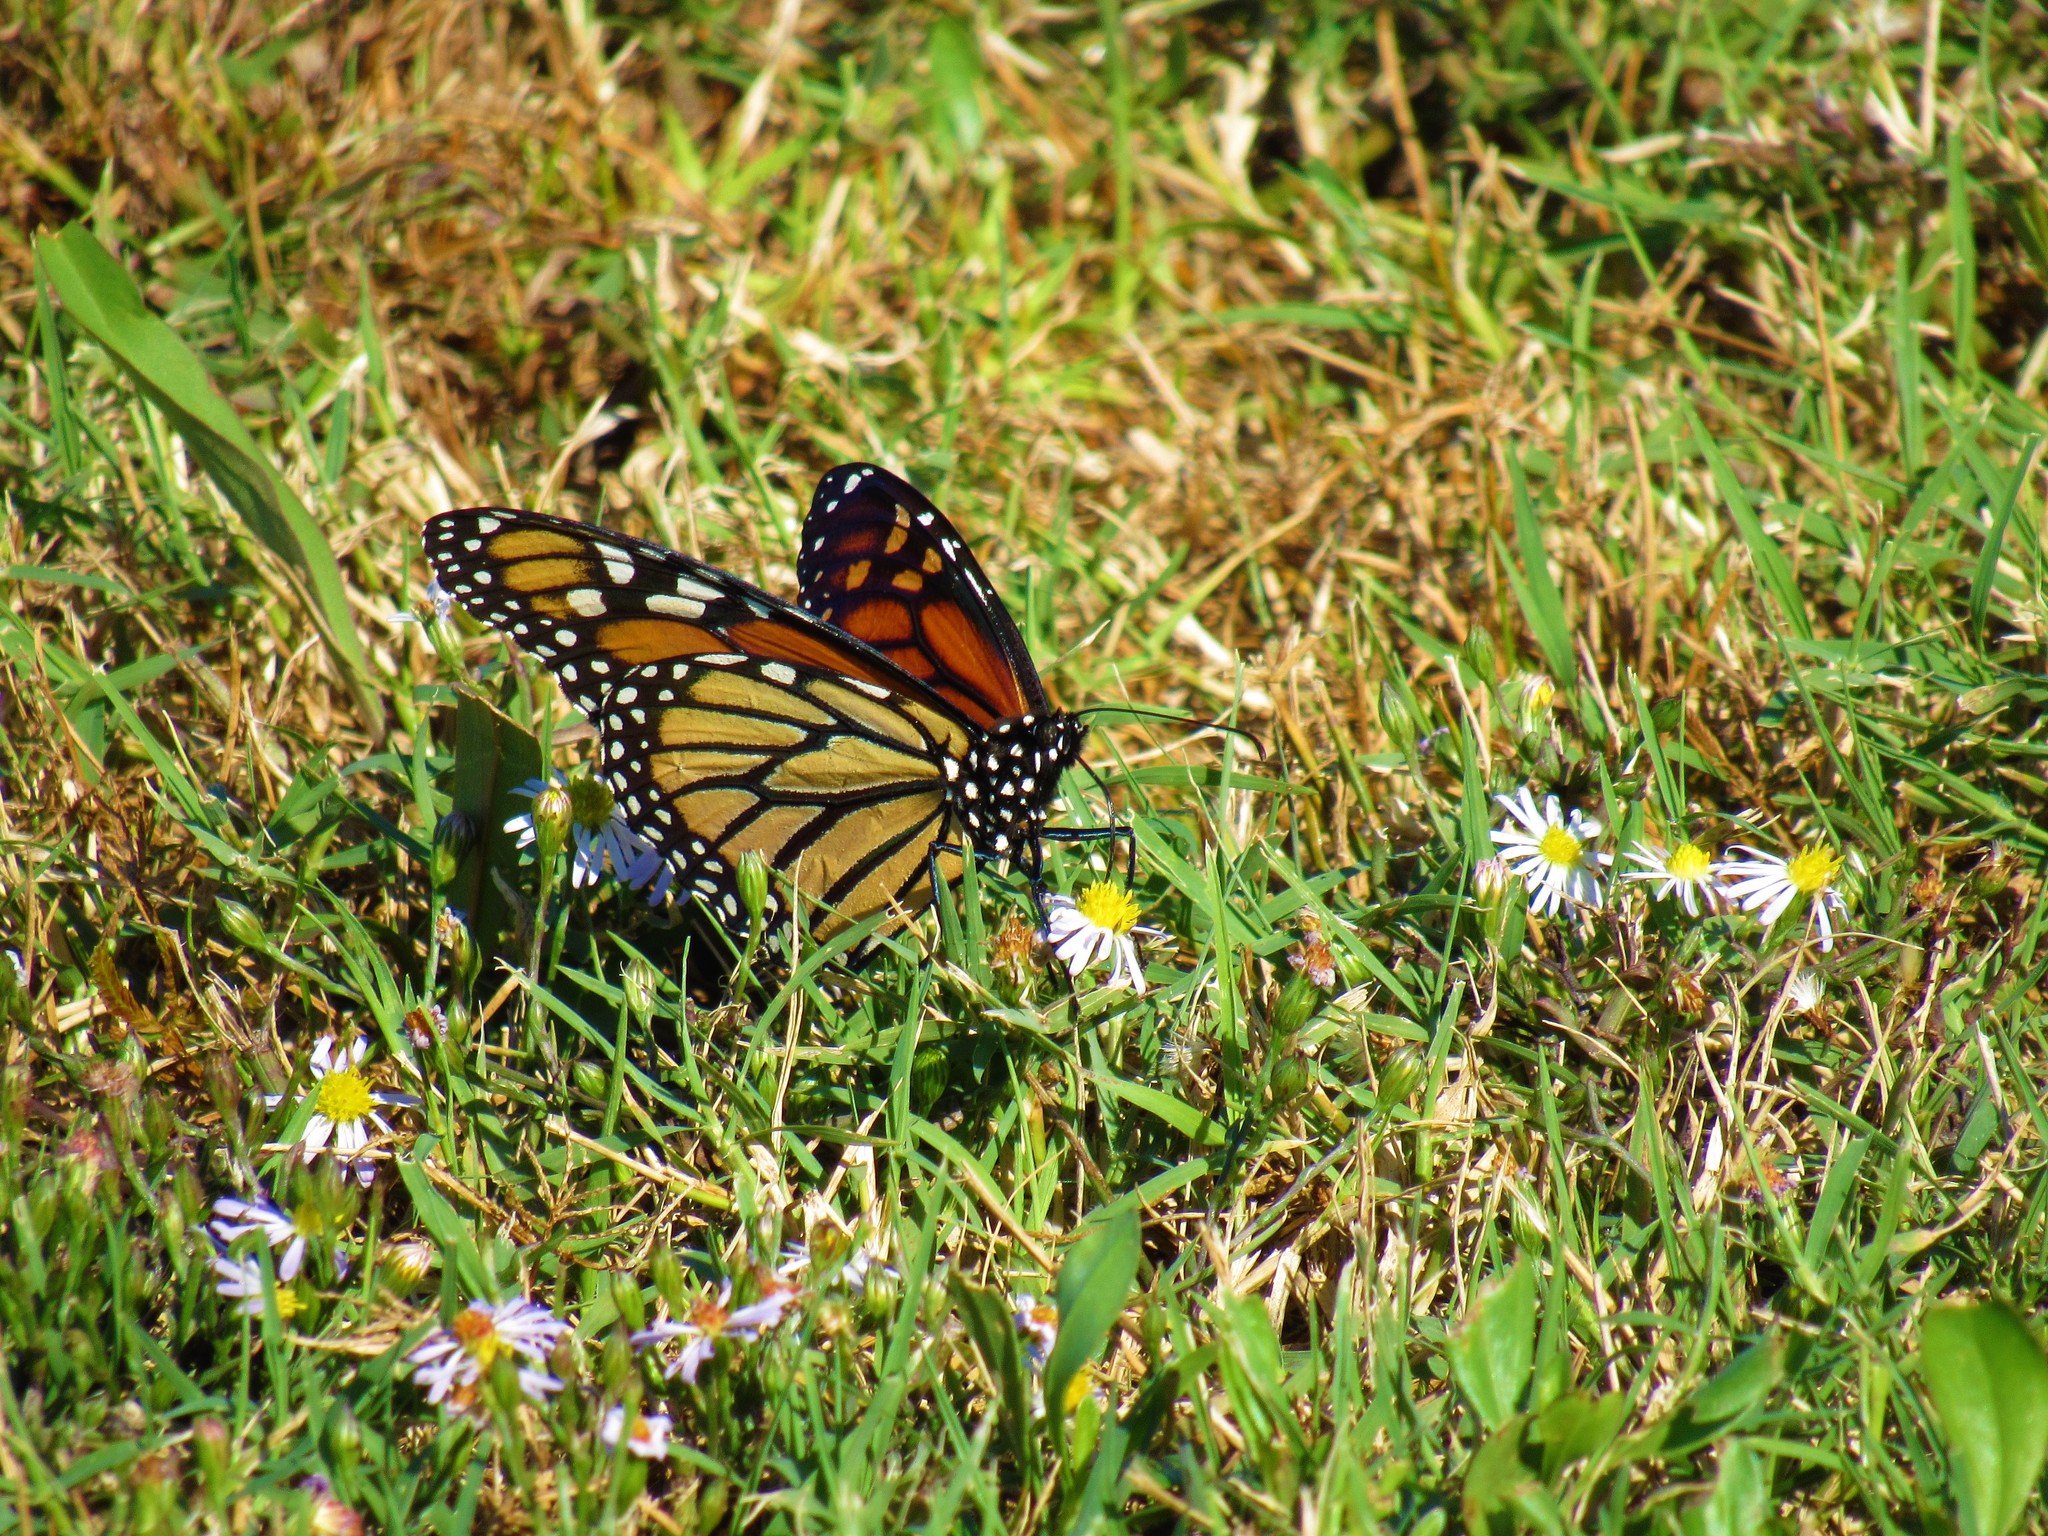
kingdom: Animalia
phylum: Arthropoda
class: Insecta
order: Lepidoptera
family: Nymphalidae
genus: Danaus
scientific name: Danaus plexippus
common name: Monarch
